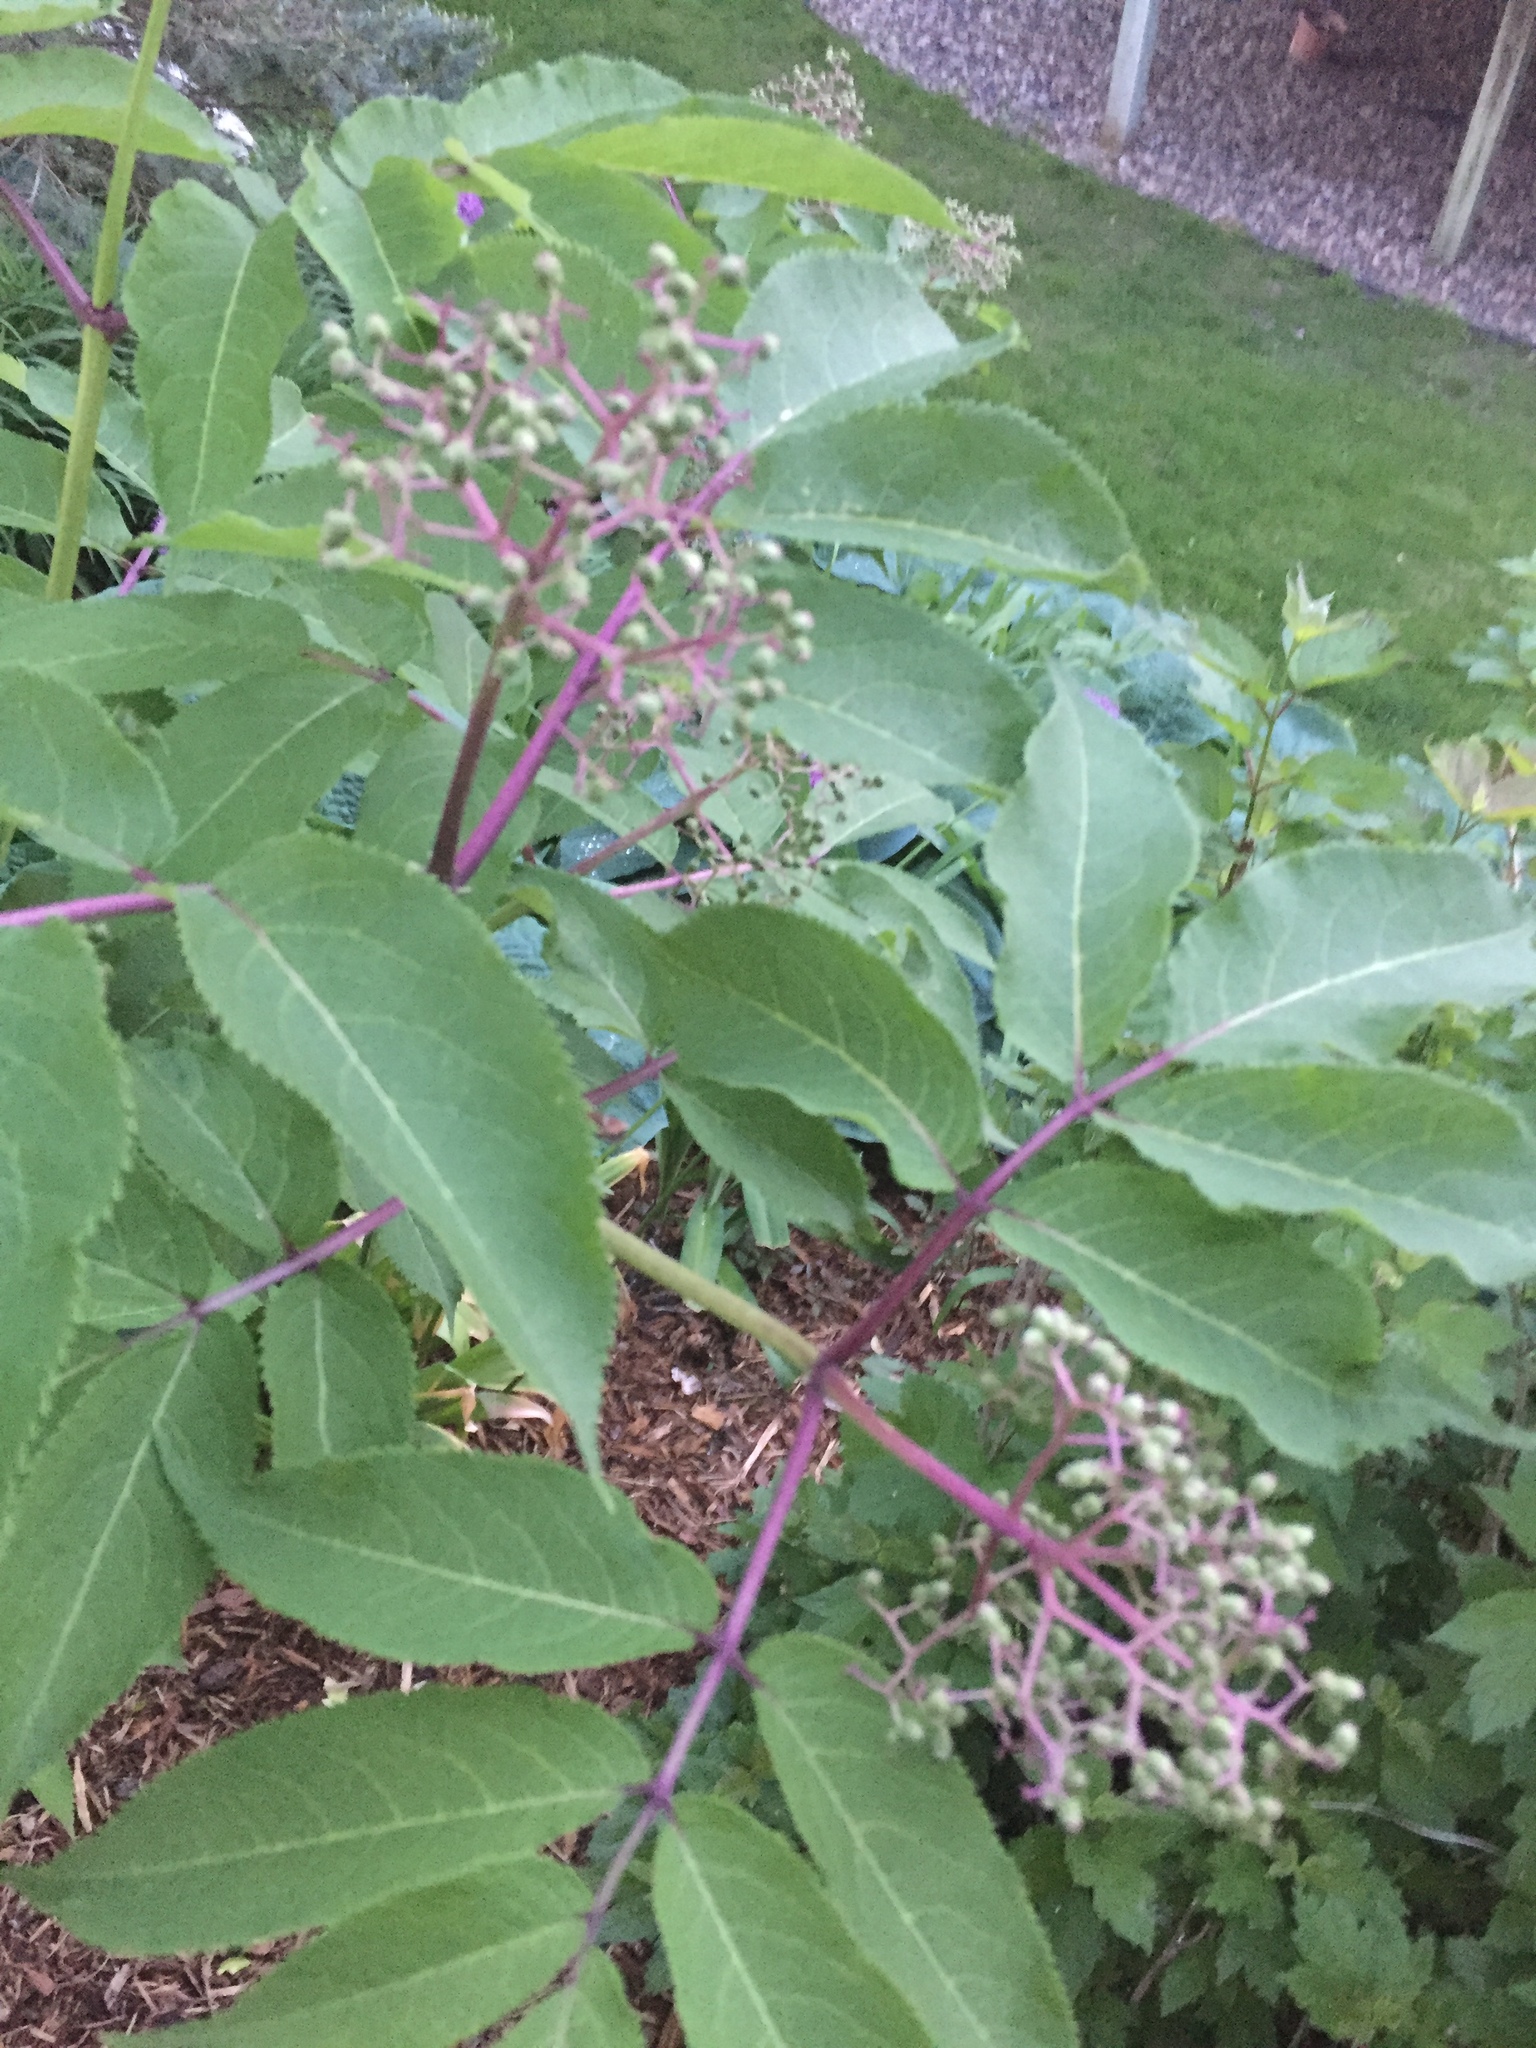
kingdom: Plantae
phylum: Tracheophyta
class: Magnoliopsida
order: Dipsacales
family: Viburnaceae
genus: Sambucus
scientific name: Sambucus racemosa
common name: Red-berried elder
